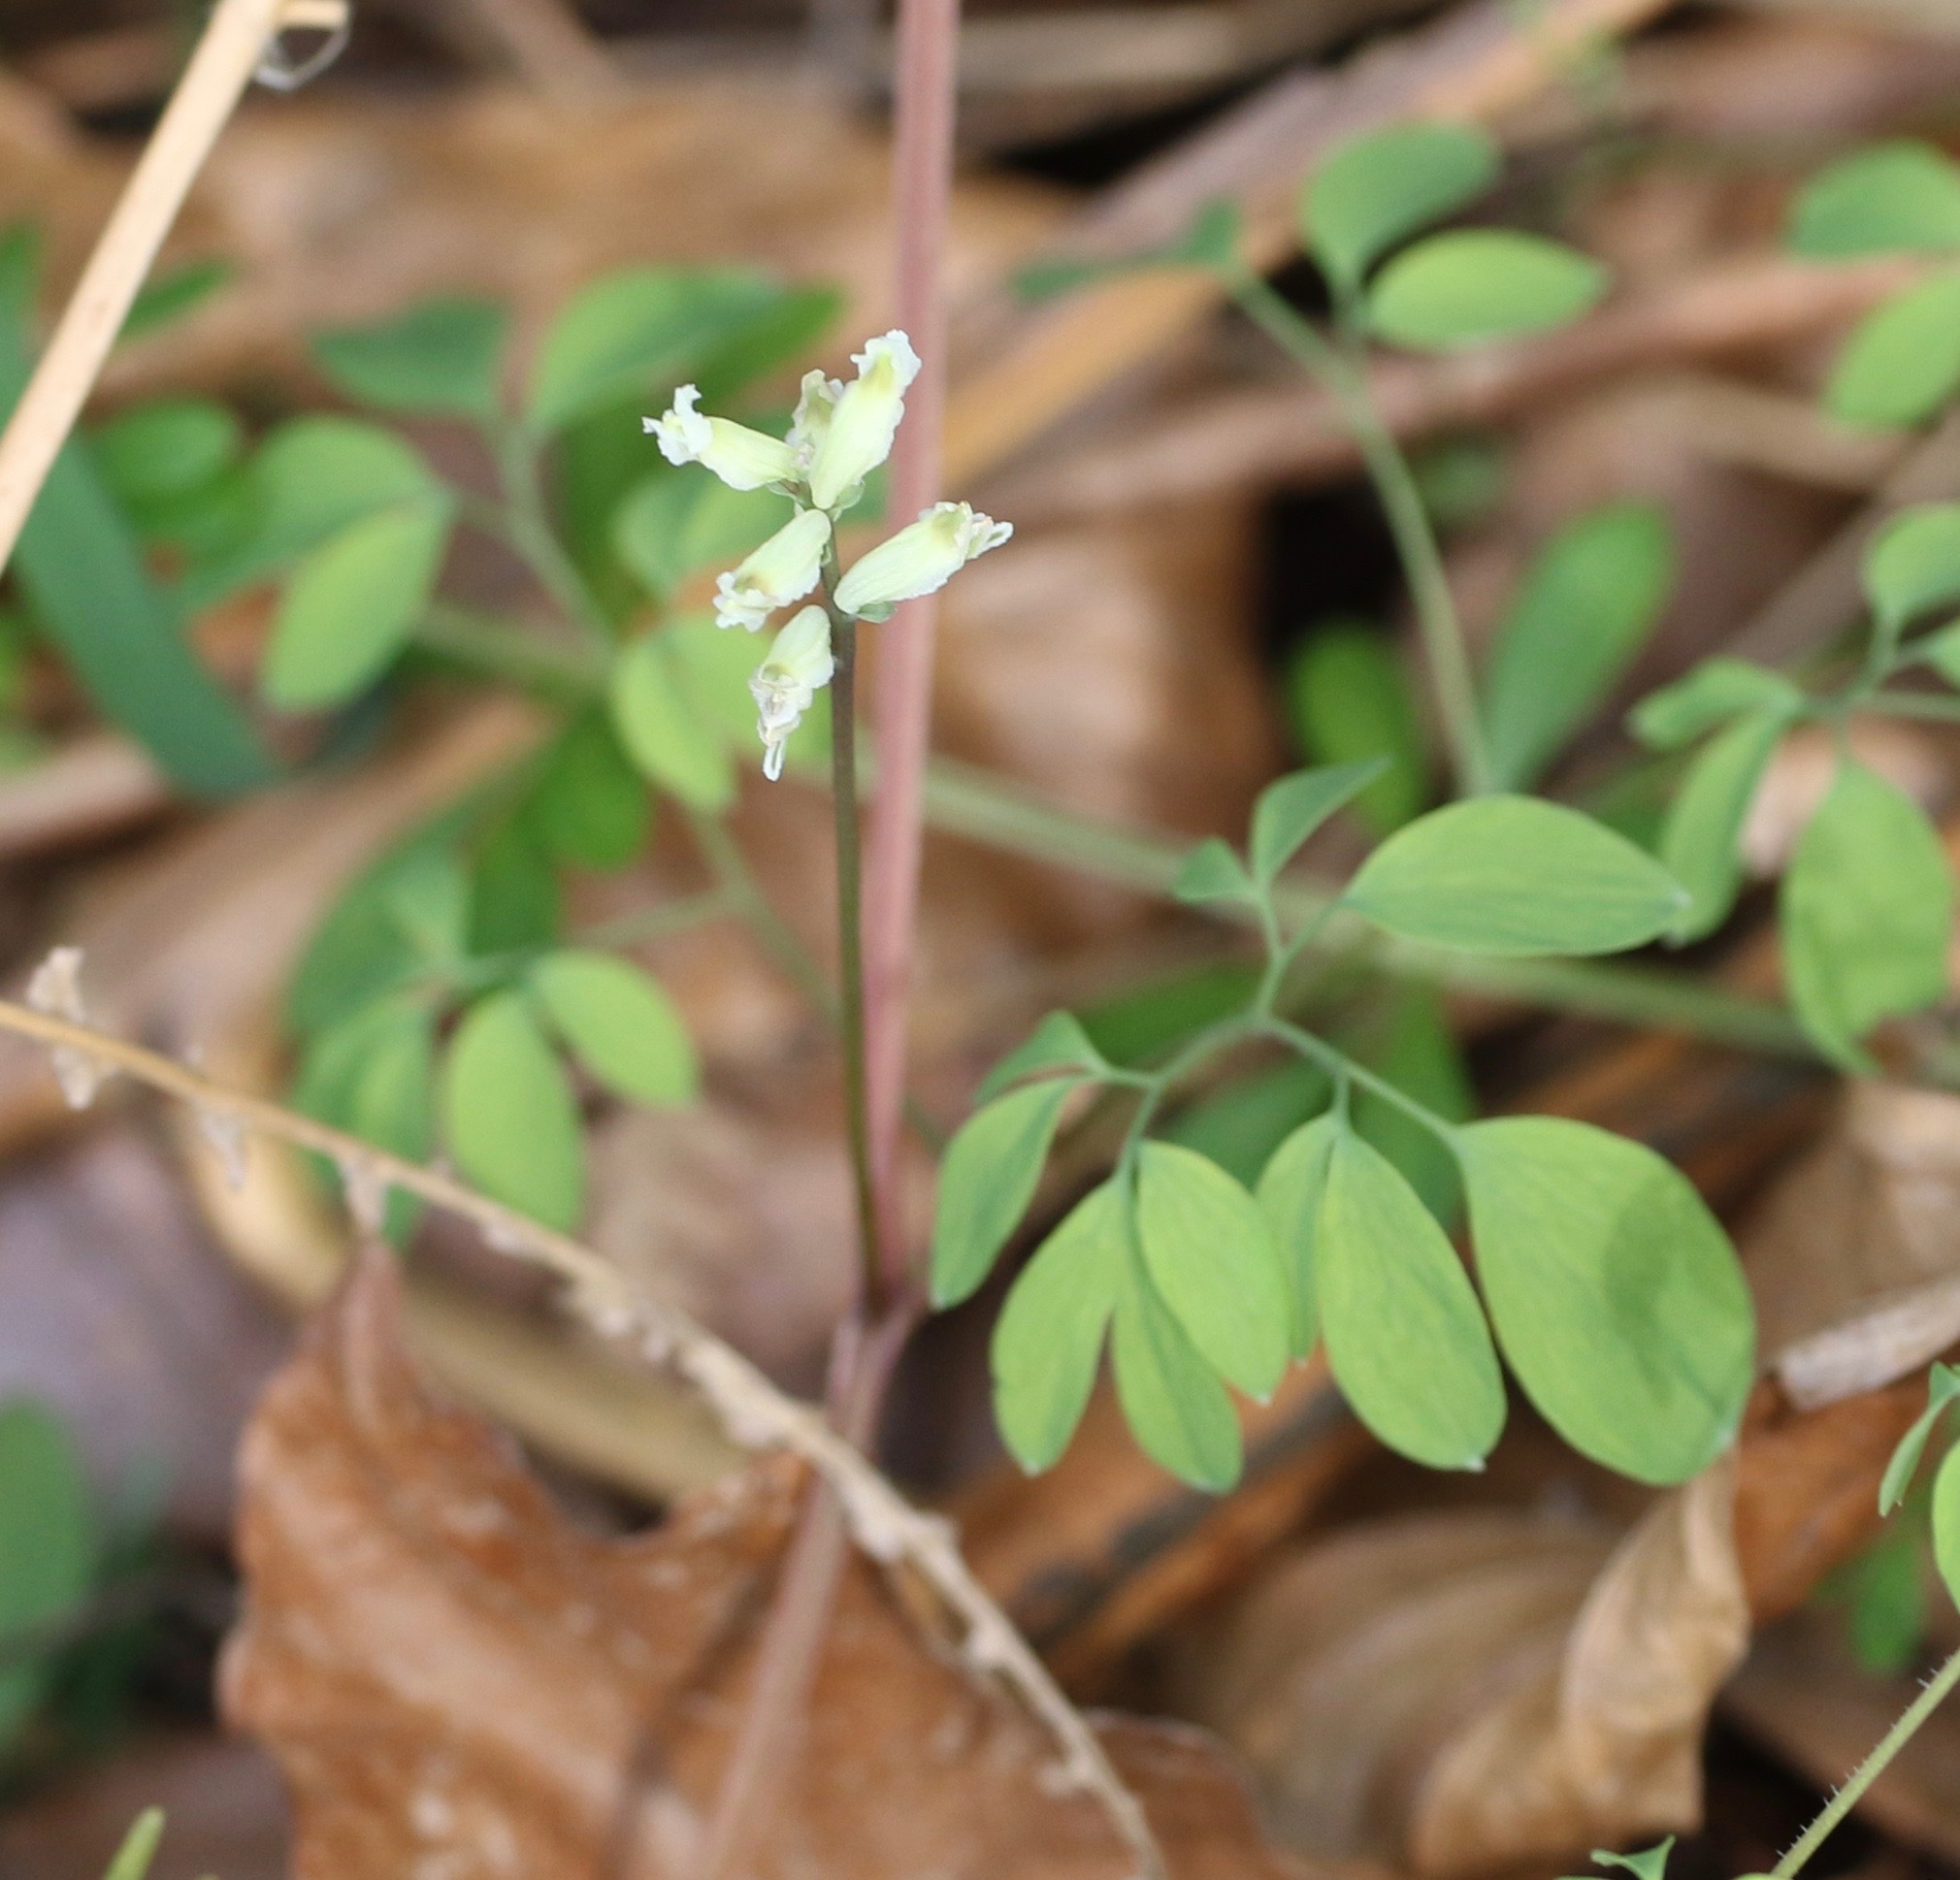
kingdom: Plantae
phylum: Tracheophyta
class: Magnoliopsida
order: Ranunculales
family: Papaveraceae
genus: Ceratocapnos
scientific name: Ceratocapnos claviculata
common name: Climbing corydalis
